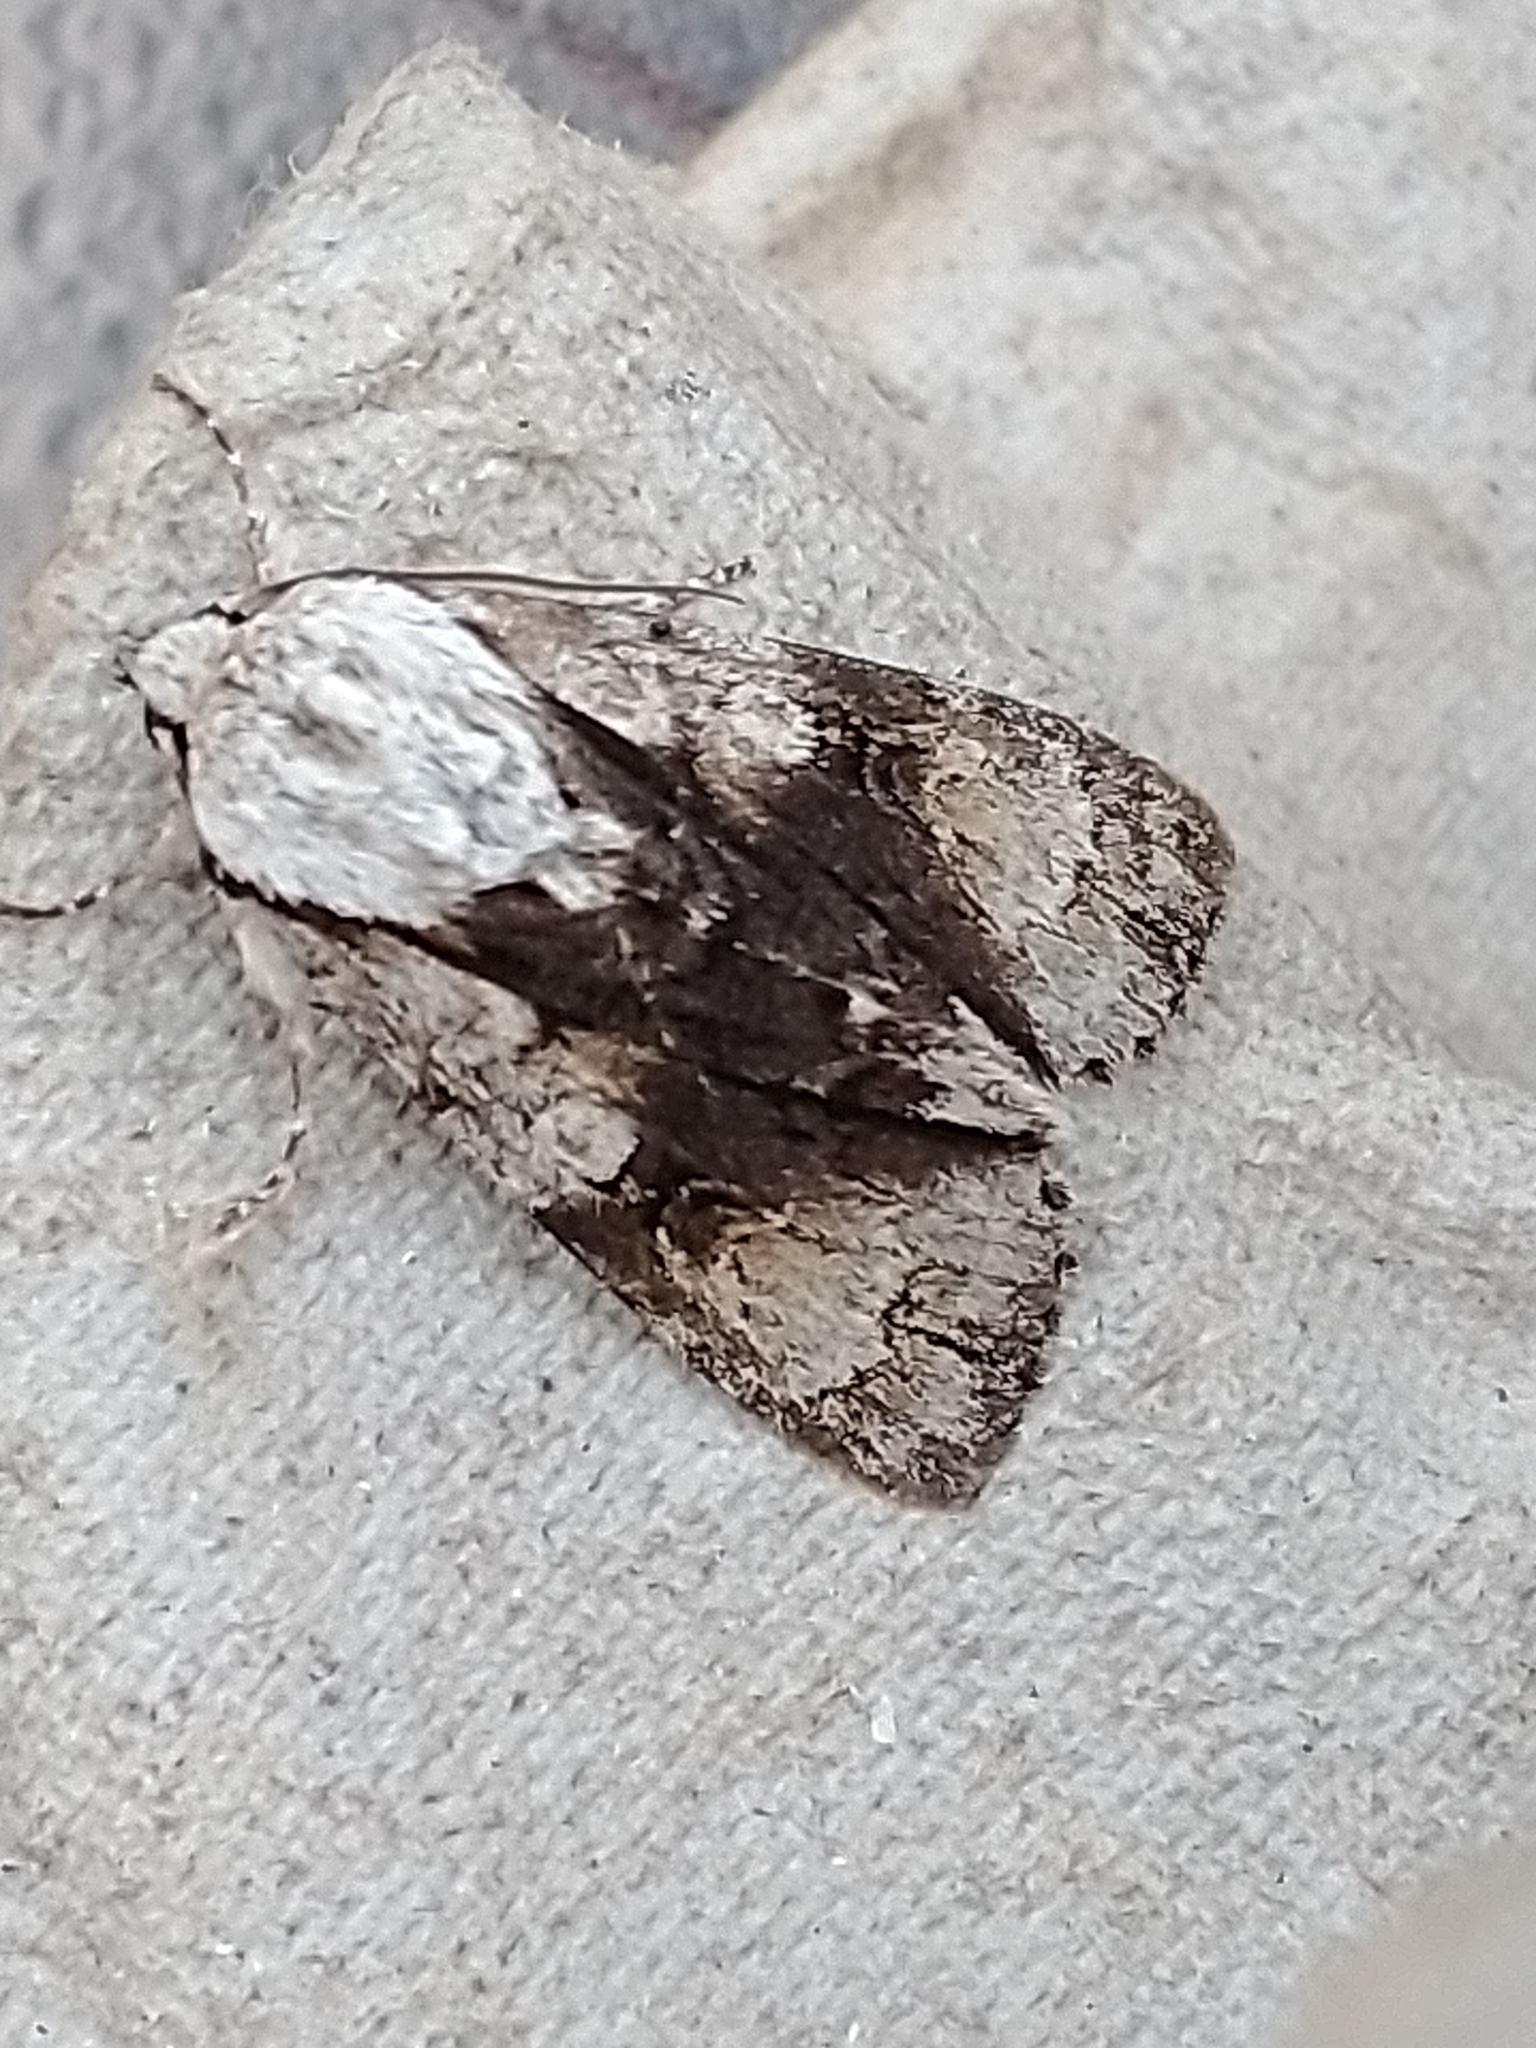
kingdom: Animalia
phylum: Arthropoda
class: Insecta
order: Lepidoptera
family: Noctuidae
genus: Acronicta
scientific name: Acronicta alni
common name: Alder moth
